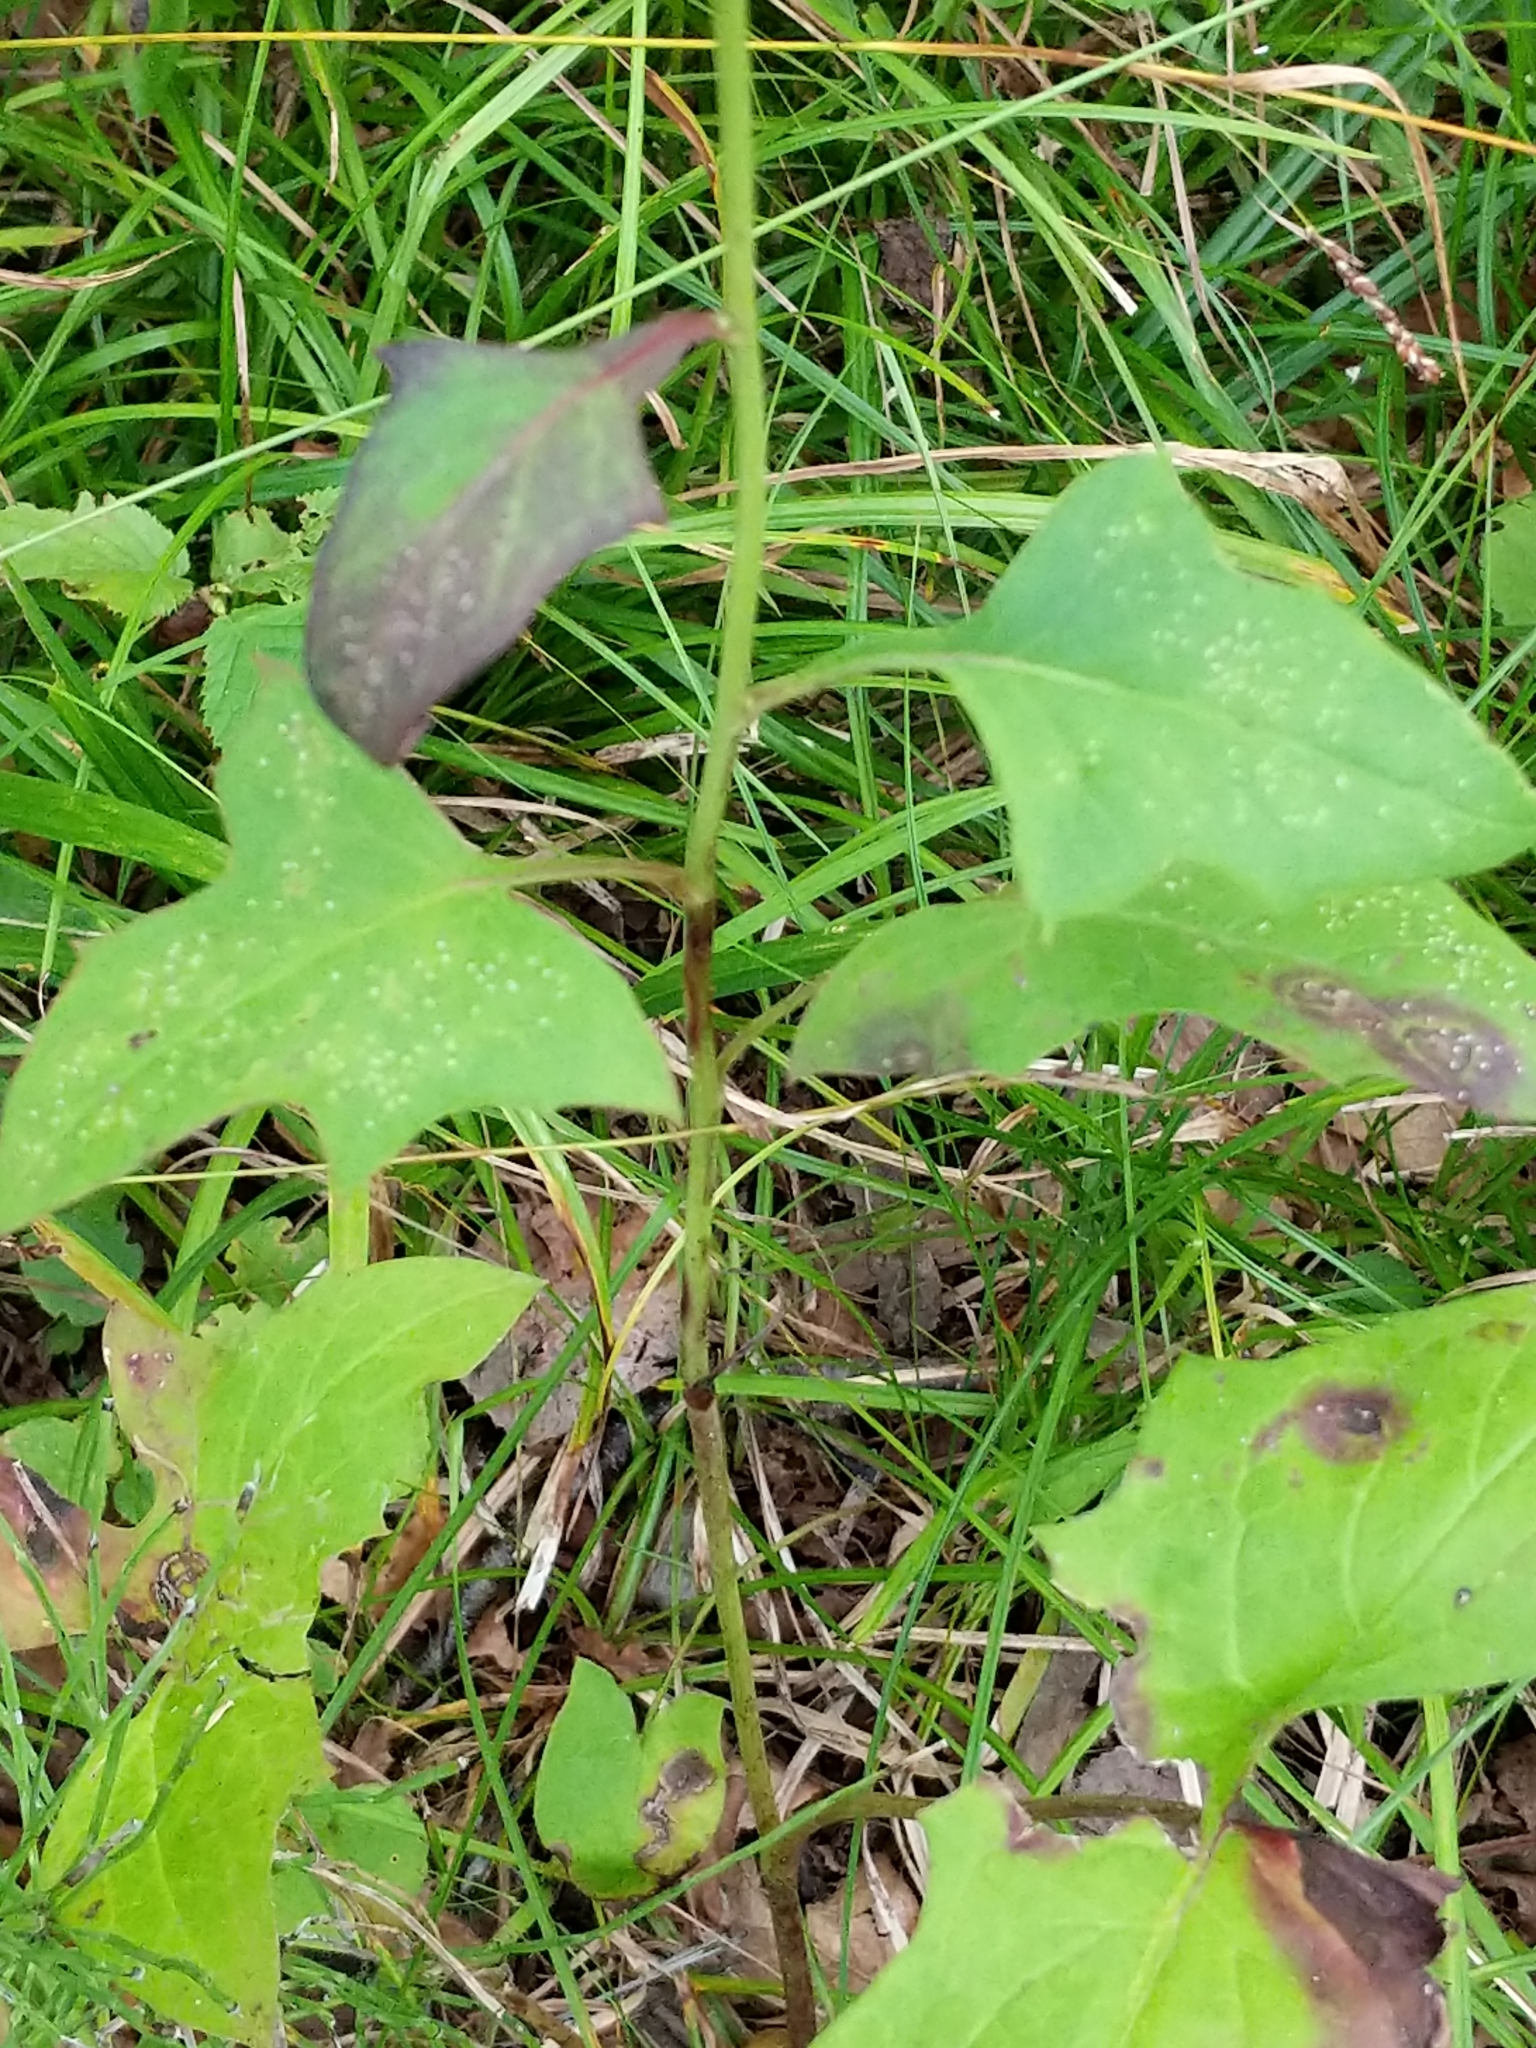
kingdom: Plantae
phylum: Tracheophyta
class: Magnoliopsida
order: Asterales
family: Asteraceae
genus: Nabalus
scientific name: Nabalus albus
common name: White rattlesnakeroot
